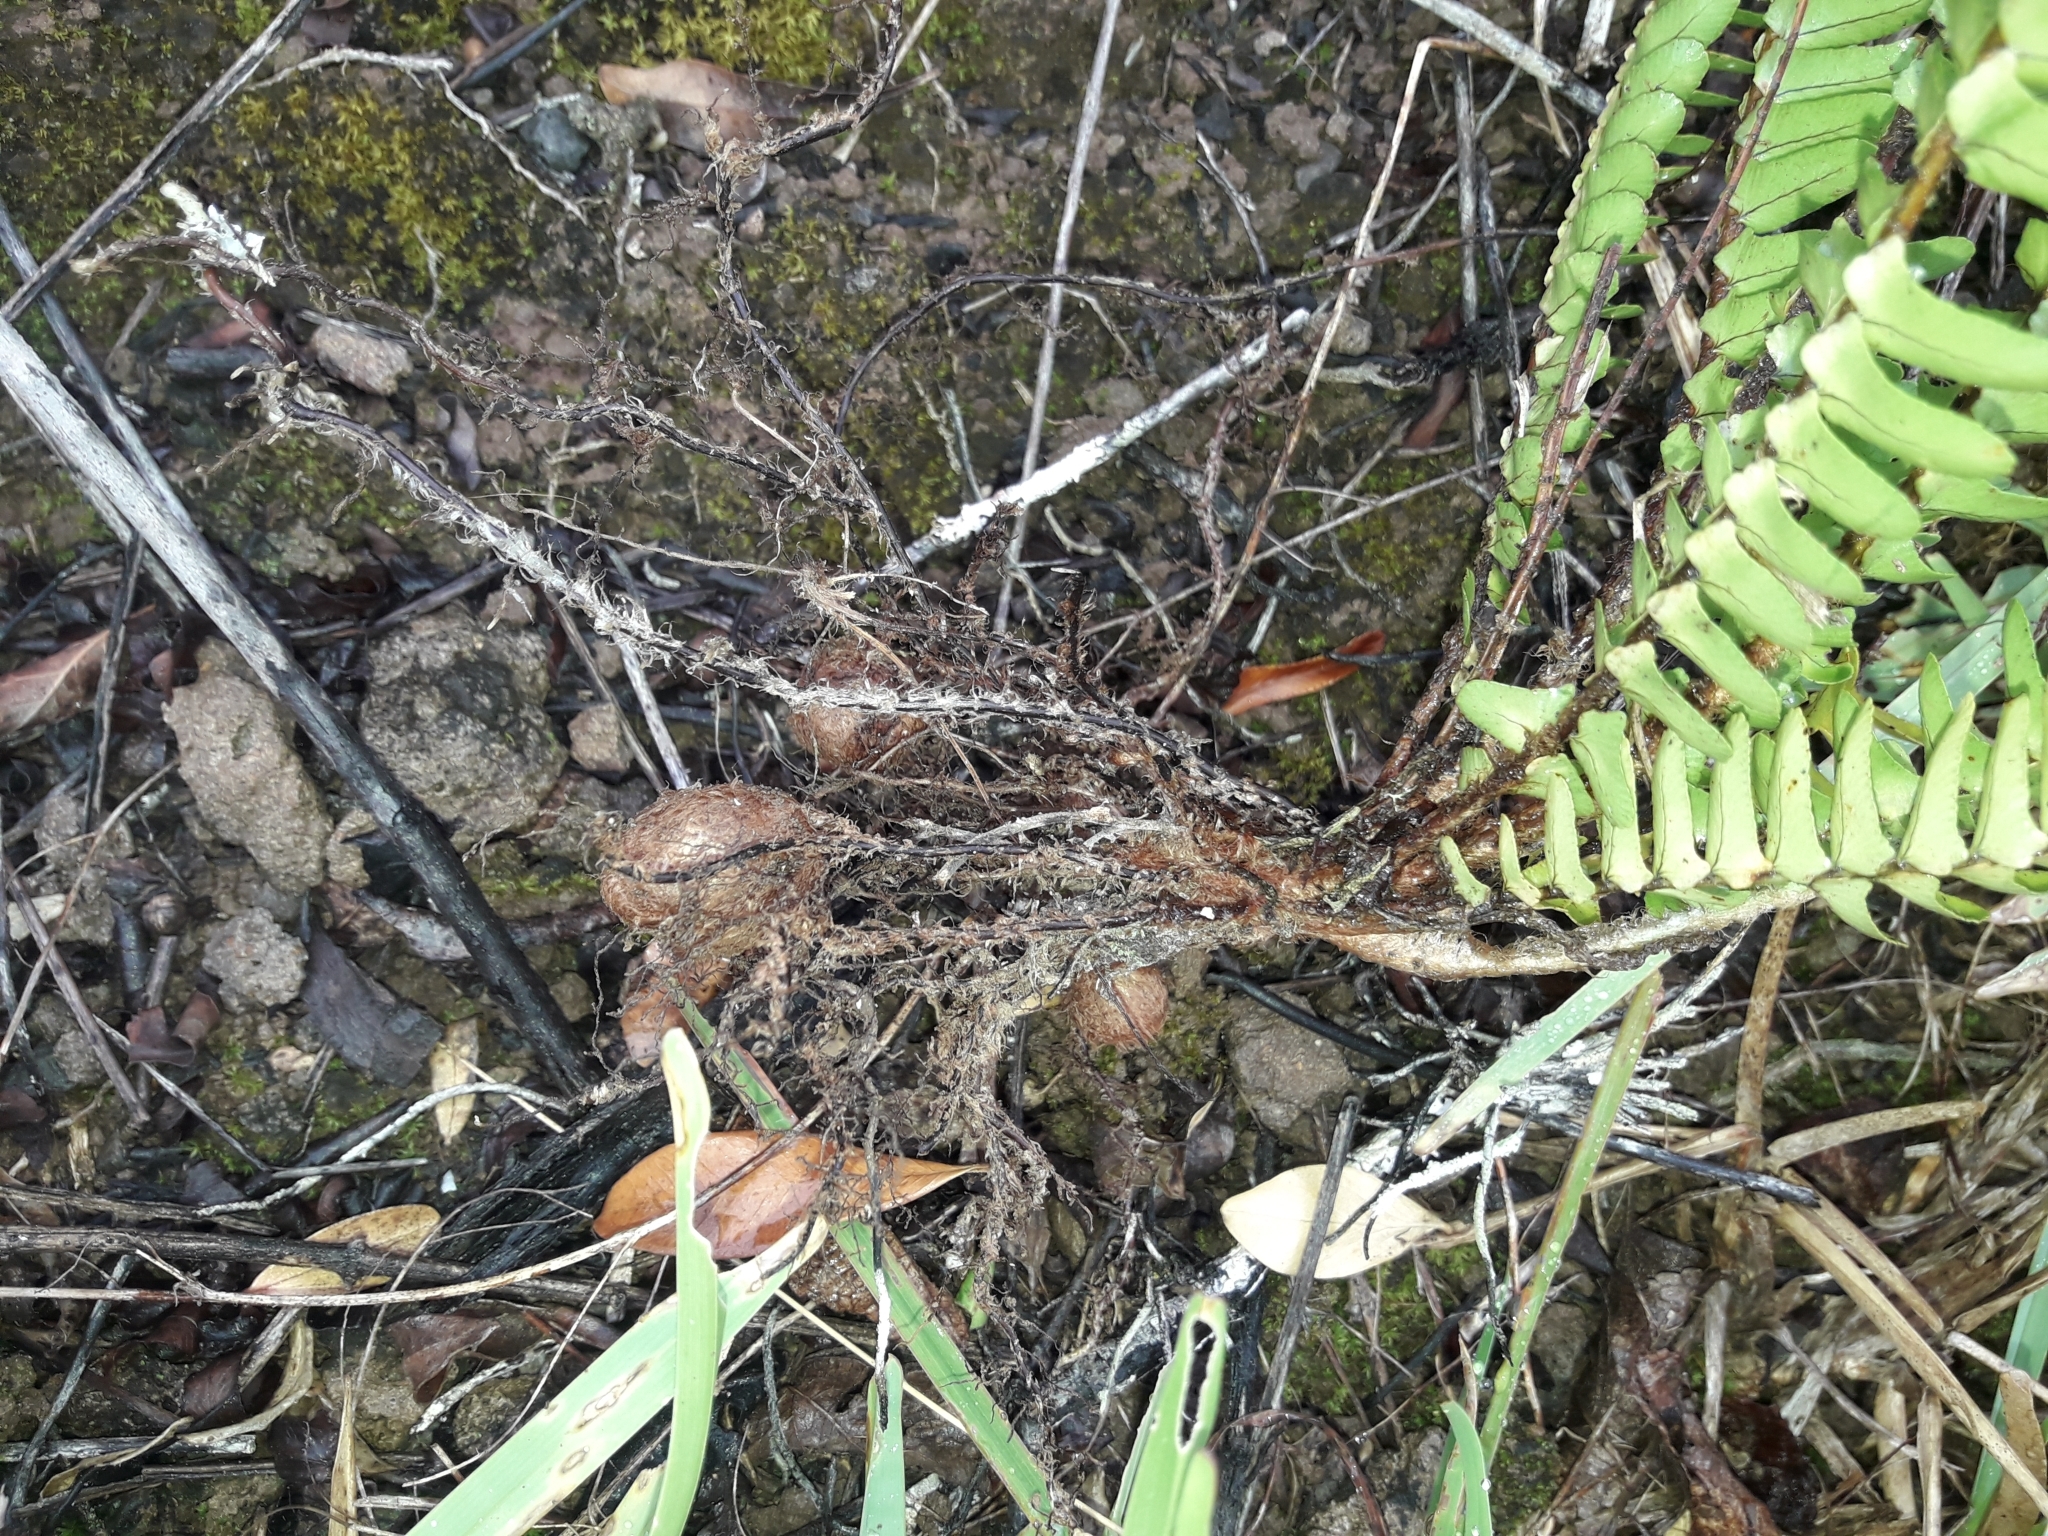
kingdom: Plantae
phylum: Tracheophyta
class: Polypodiopsida
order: Polypodiales
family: Nephrolepidaceae
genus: Nephrolepis
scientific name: Nephrolepis cordifolia
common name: Narrow swordfern
